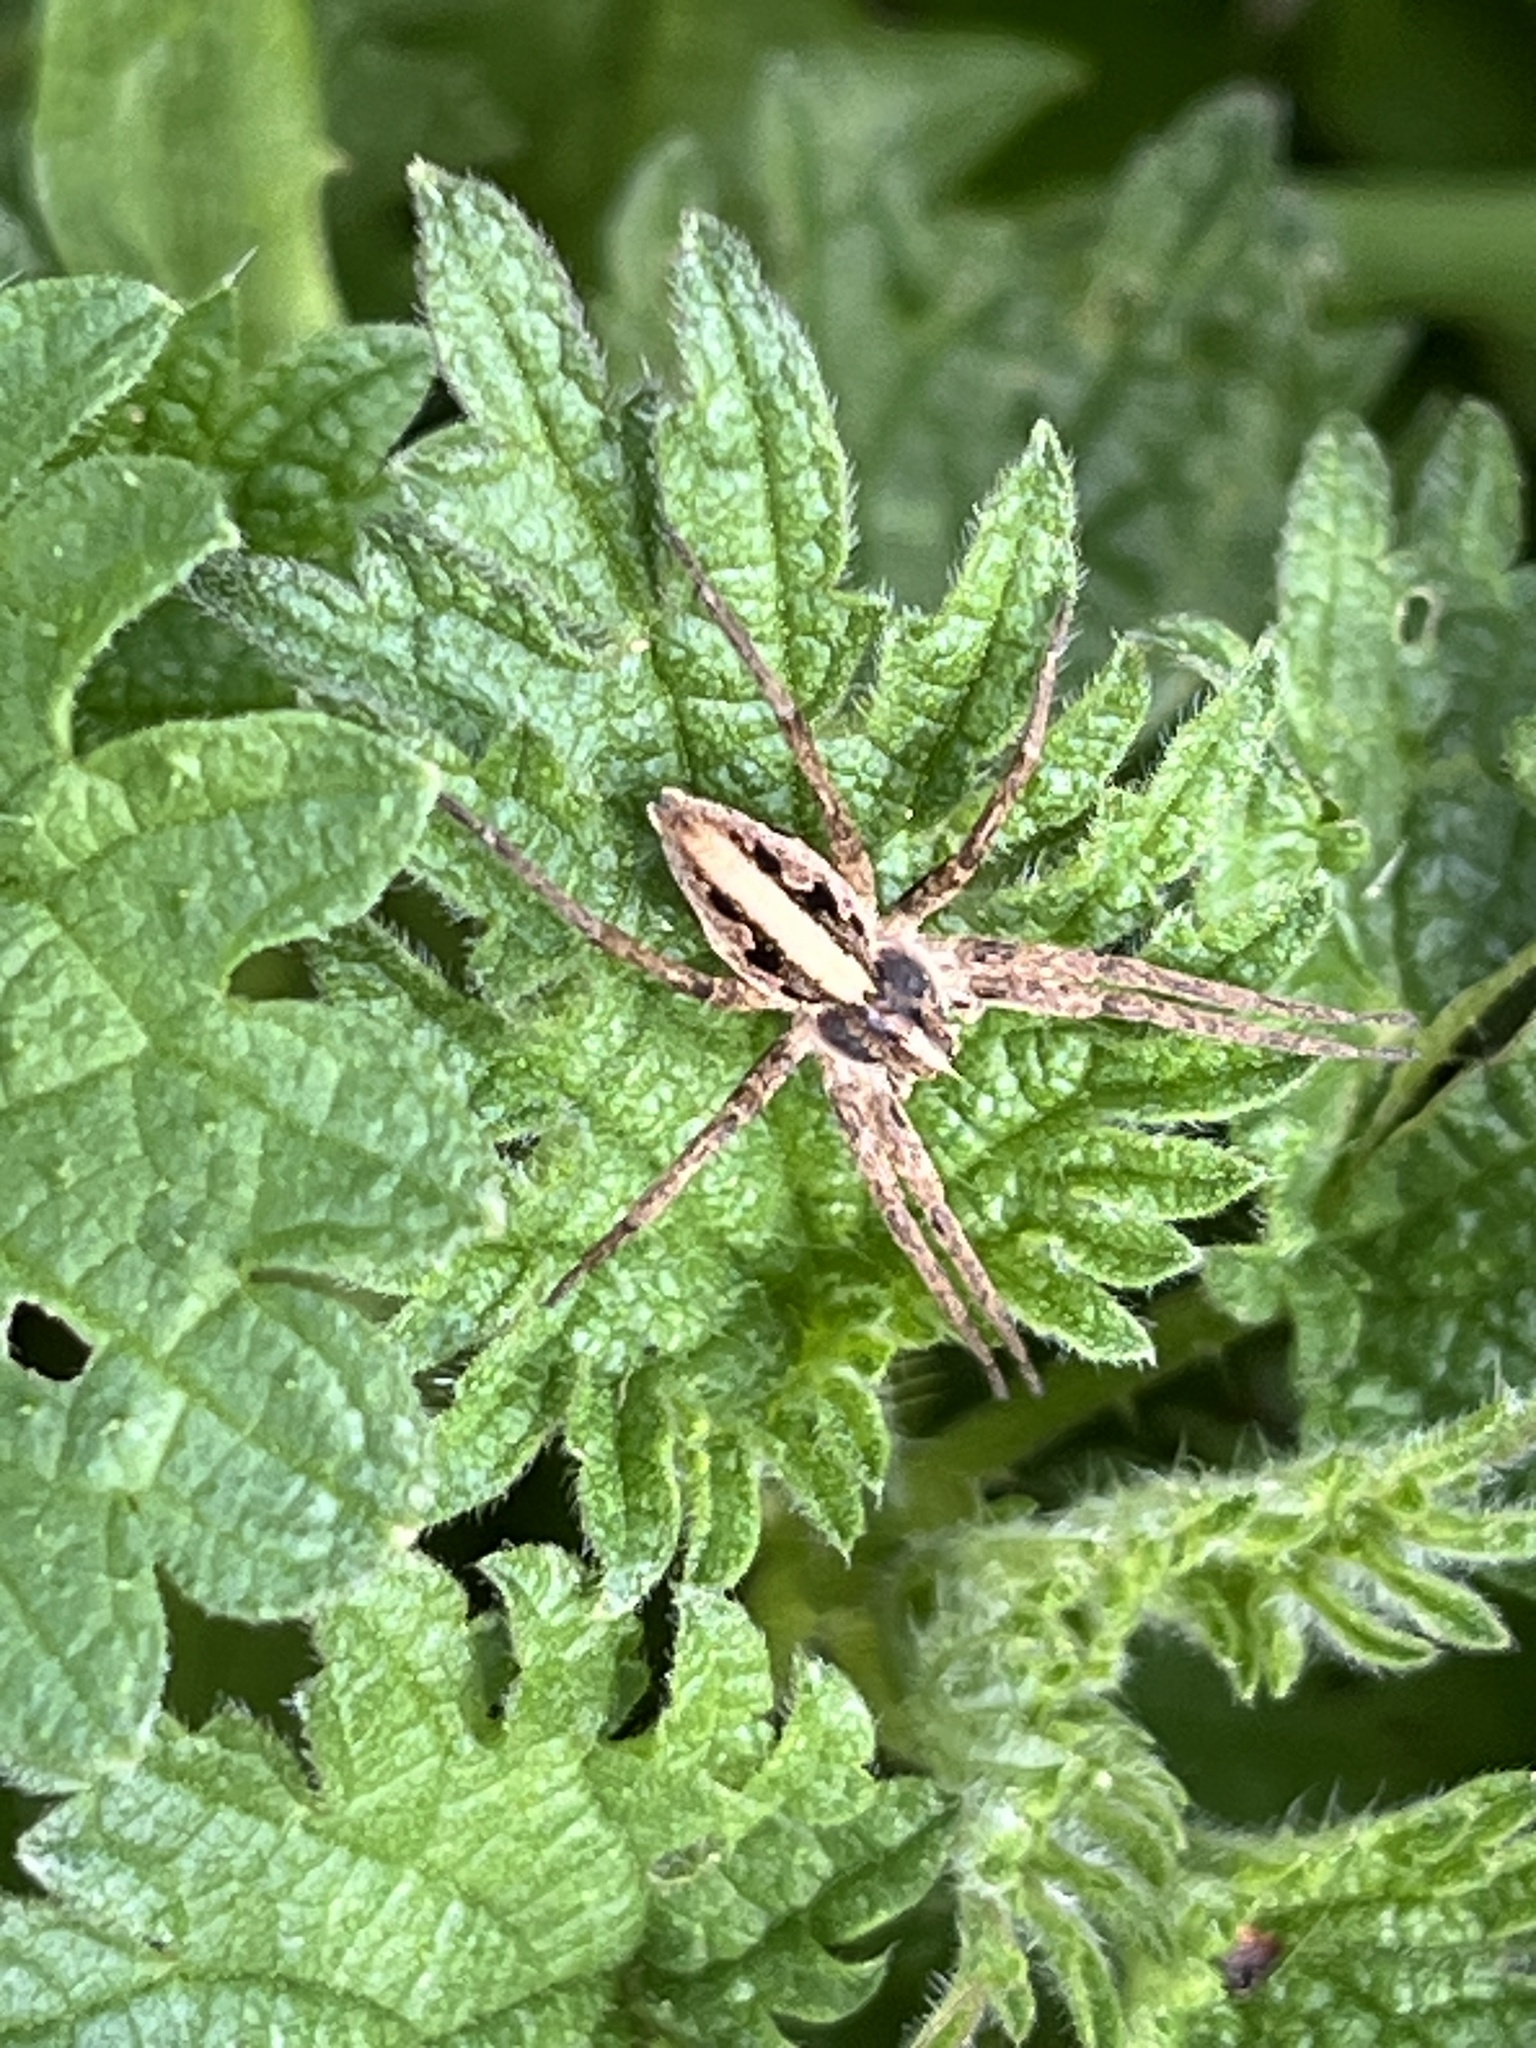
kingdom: Animalia
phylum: Arthropoda
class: Arachnida
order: Araneae
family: Pisauridae
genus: Pisaura
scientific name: Pisaura mirabilis
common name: Tent spider
